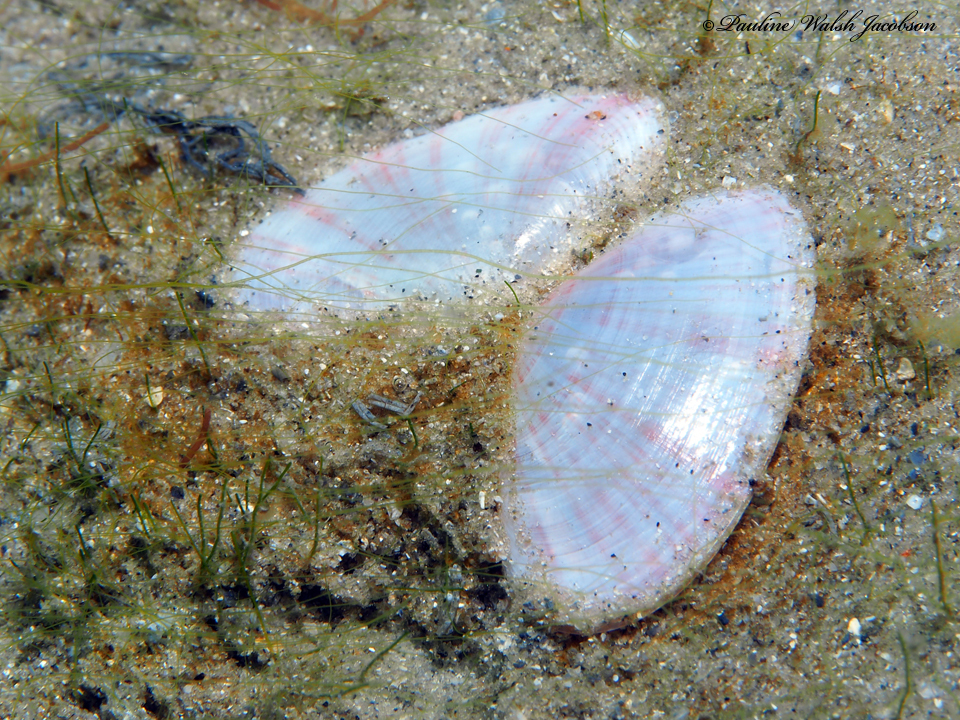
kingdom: Animalia
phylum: Mollusca
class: Bivalvia
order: Cardiida
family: Tellinidae
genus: Tellina
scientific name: Tellina radiata
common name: Sunrise tellin
